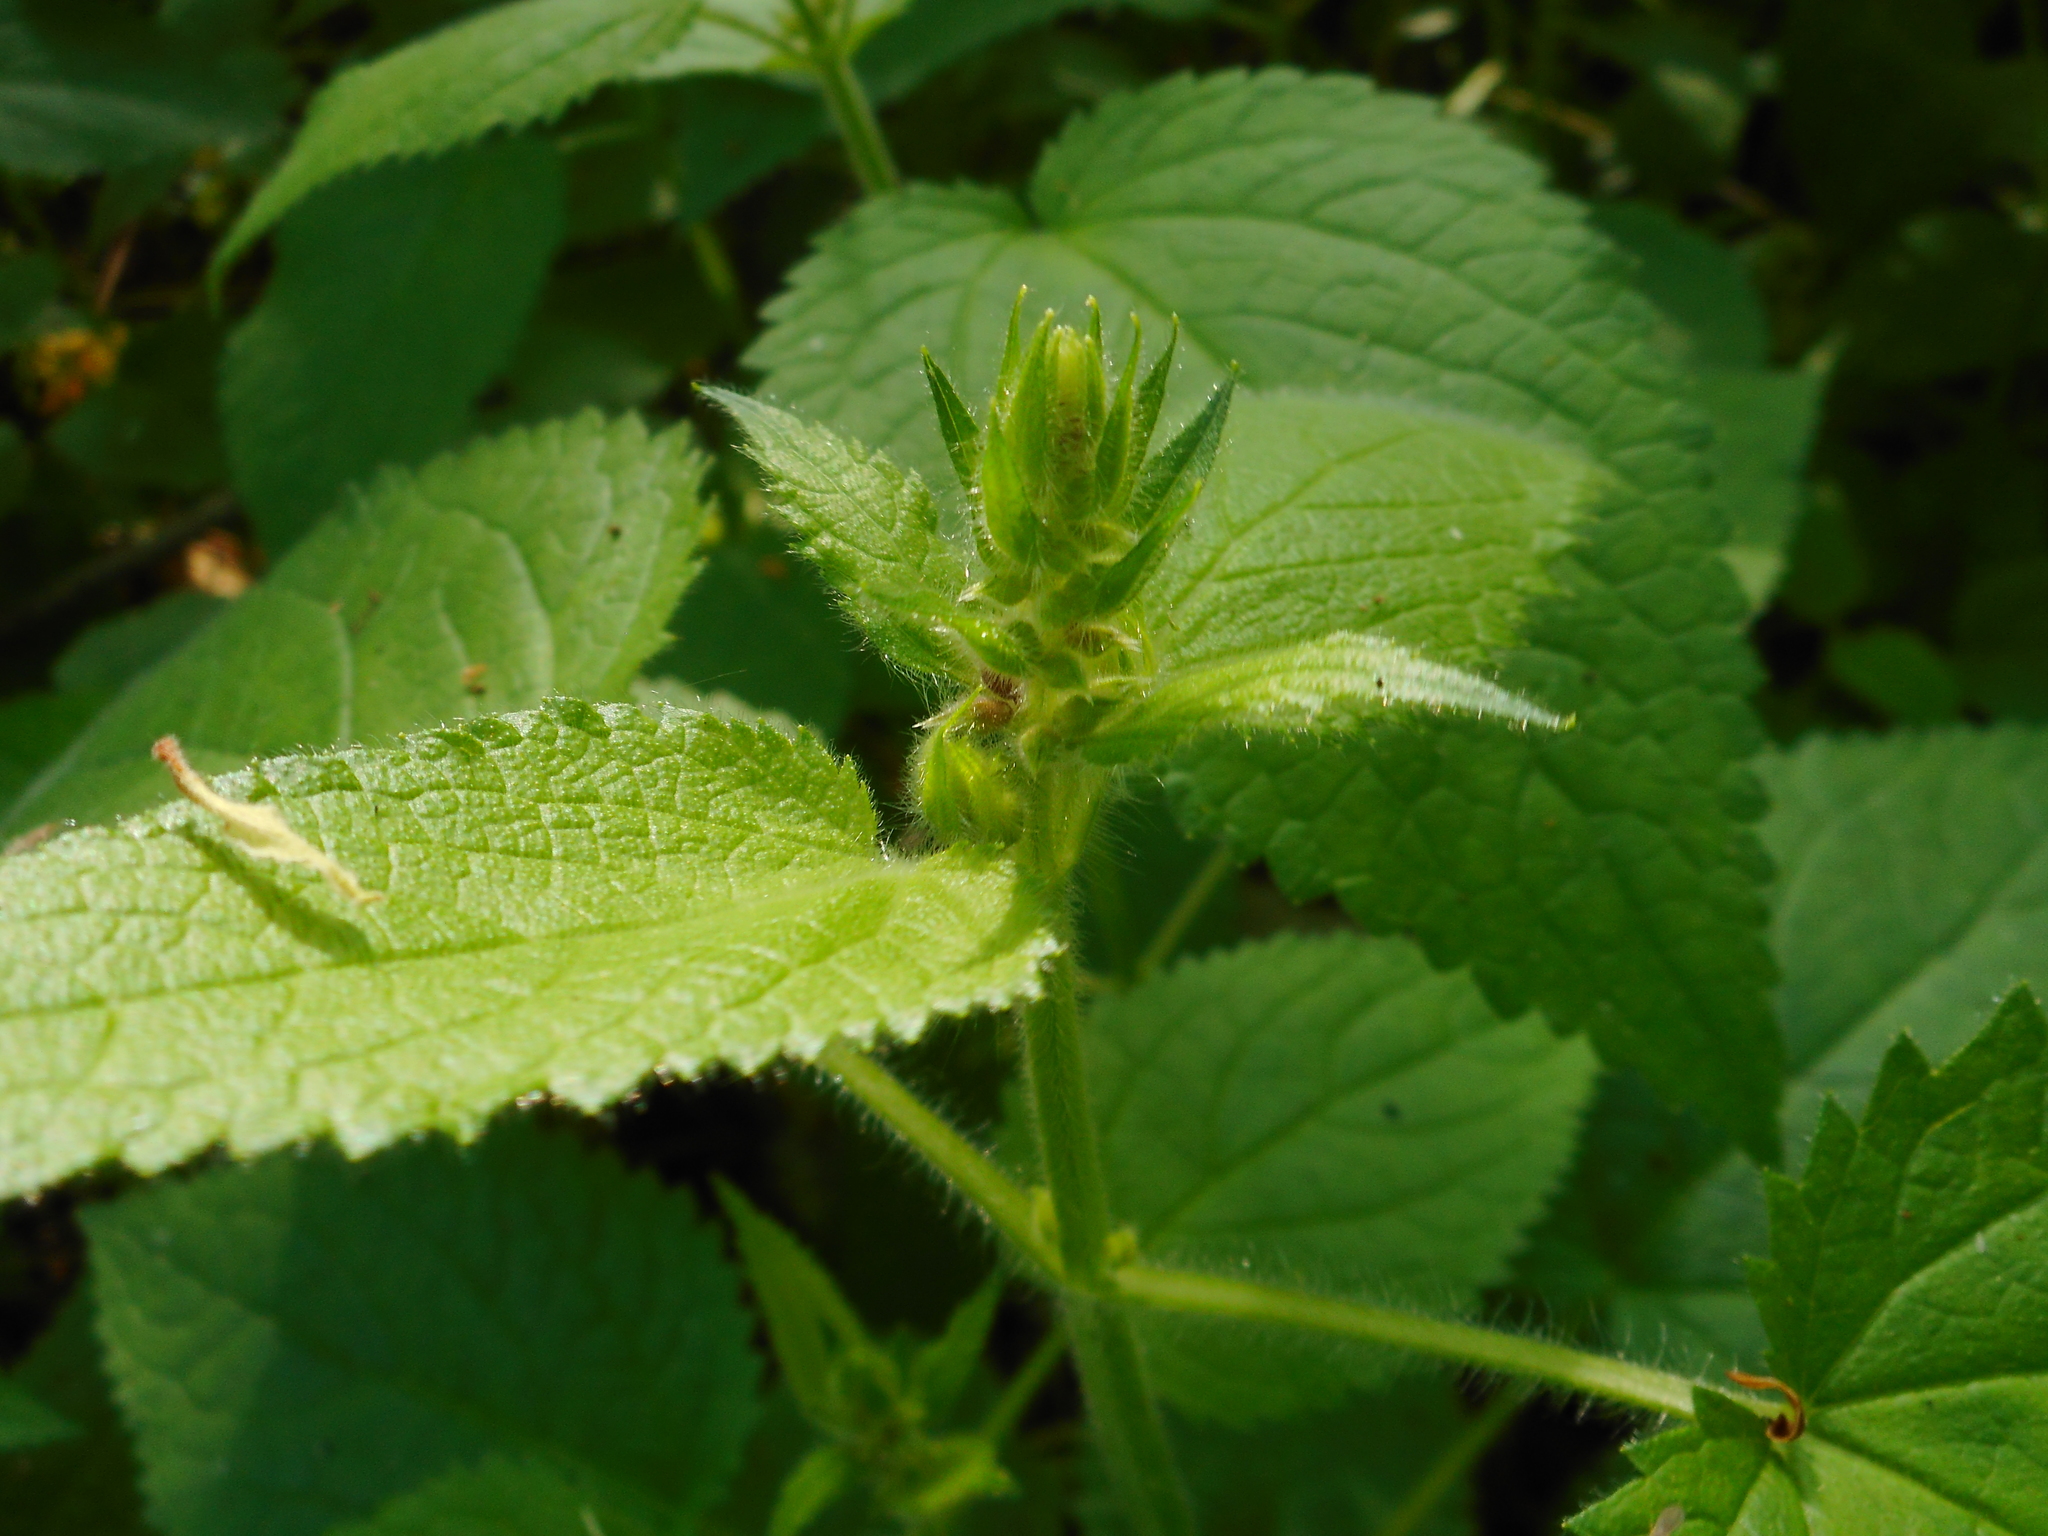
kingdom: Plantae
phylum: Tracheophyta
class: Magnoliopsida
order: Lamiales
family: Lamiaceae
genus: Stachys
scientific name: Stachys sylvatica
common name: Hedge woundwort
